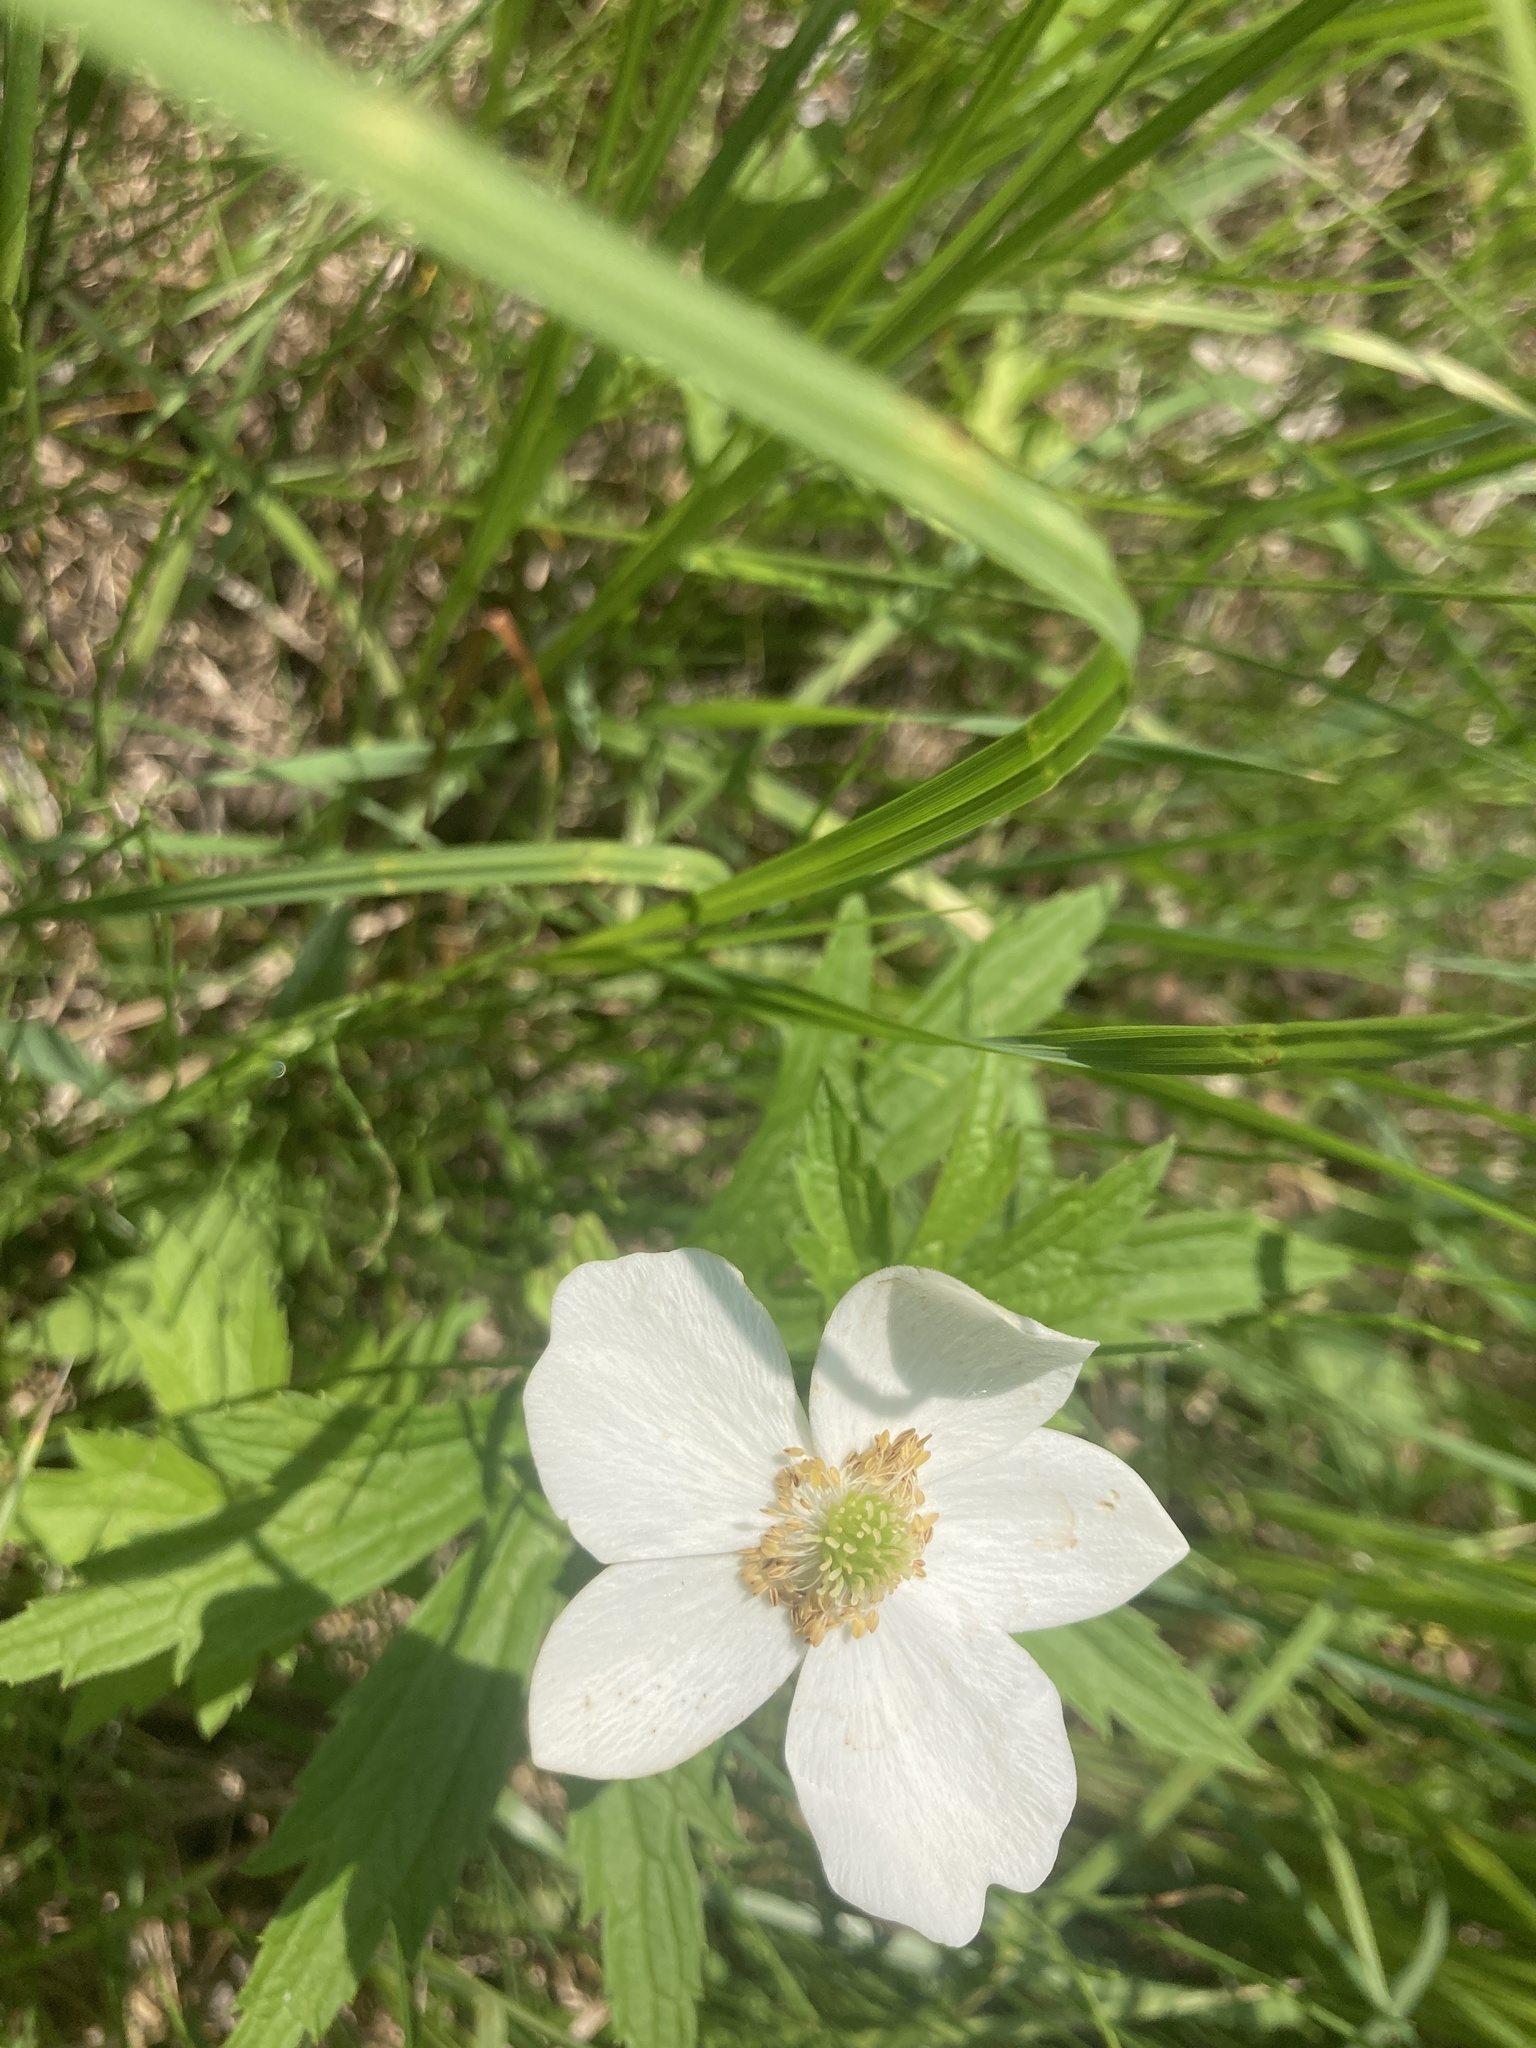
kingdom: Plantae
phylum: Tracheophyta
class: Magnoliopsida
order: Ranunculales
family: Ranunculaceae
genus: Anemonastrum
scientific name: Anemonastrum canadense
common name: Canada anemone
